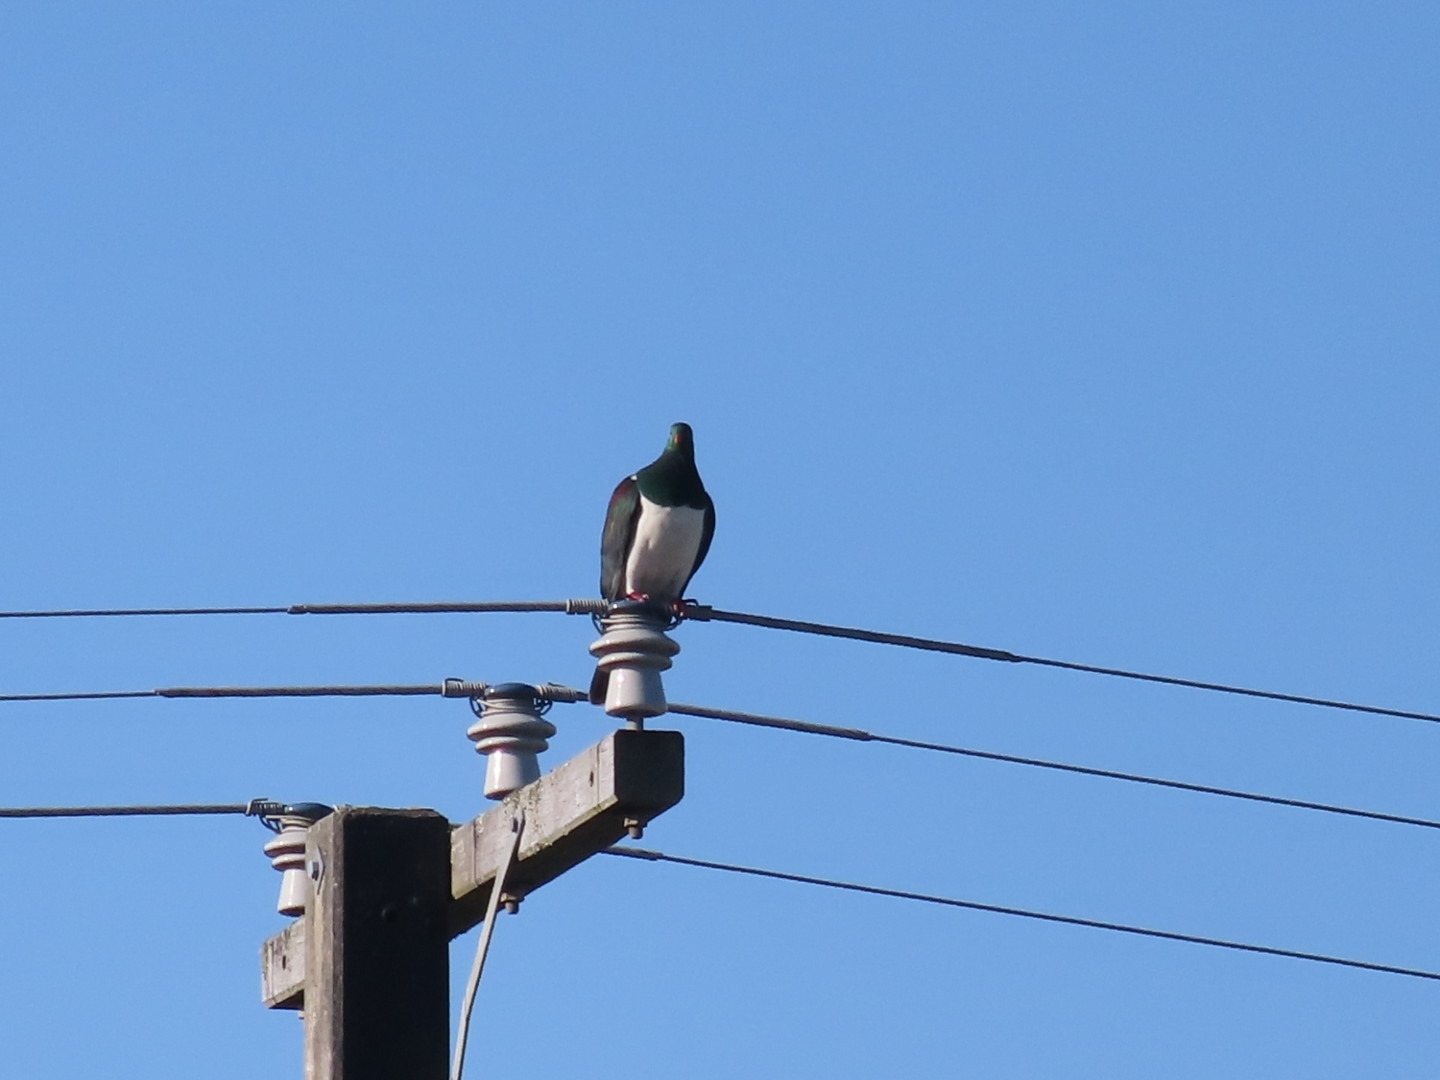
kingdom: Animalia
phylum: Chordata
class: Aves
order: Columbiformes
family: Columbidae
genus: Hemiphaga
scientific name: Hemiphaga novaeseelandiae
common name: New zealand pigeon
